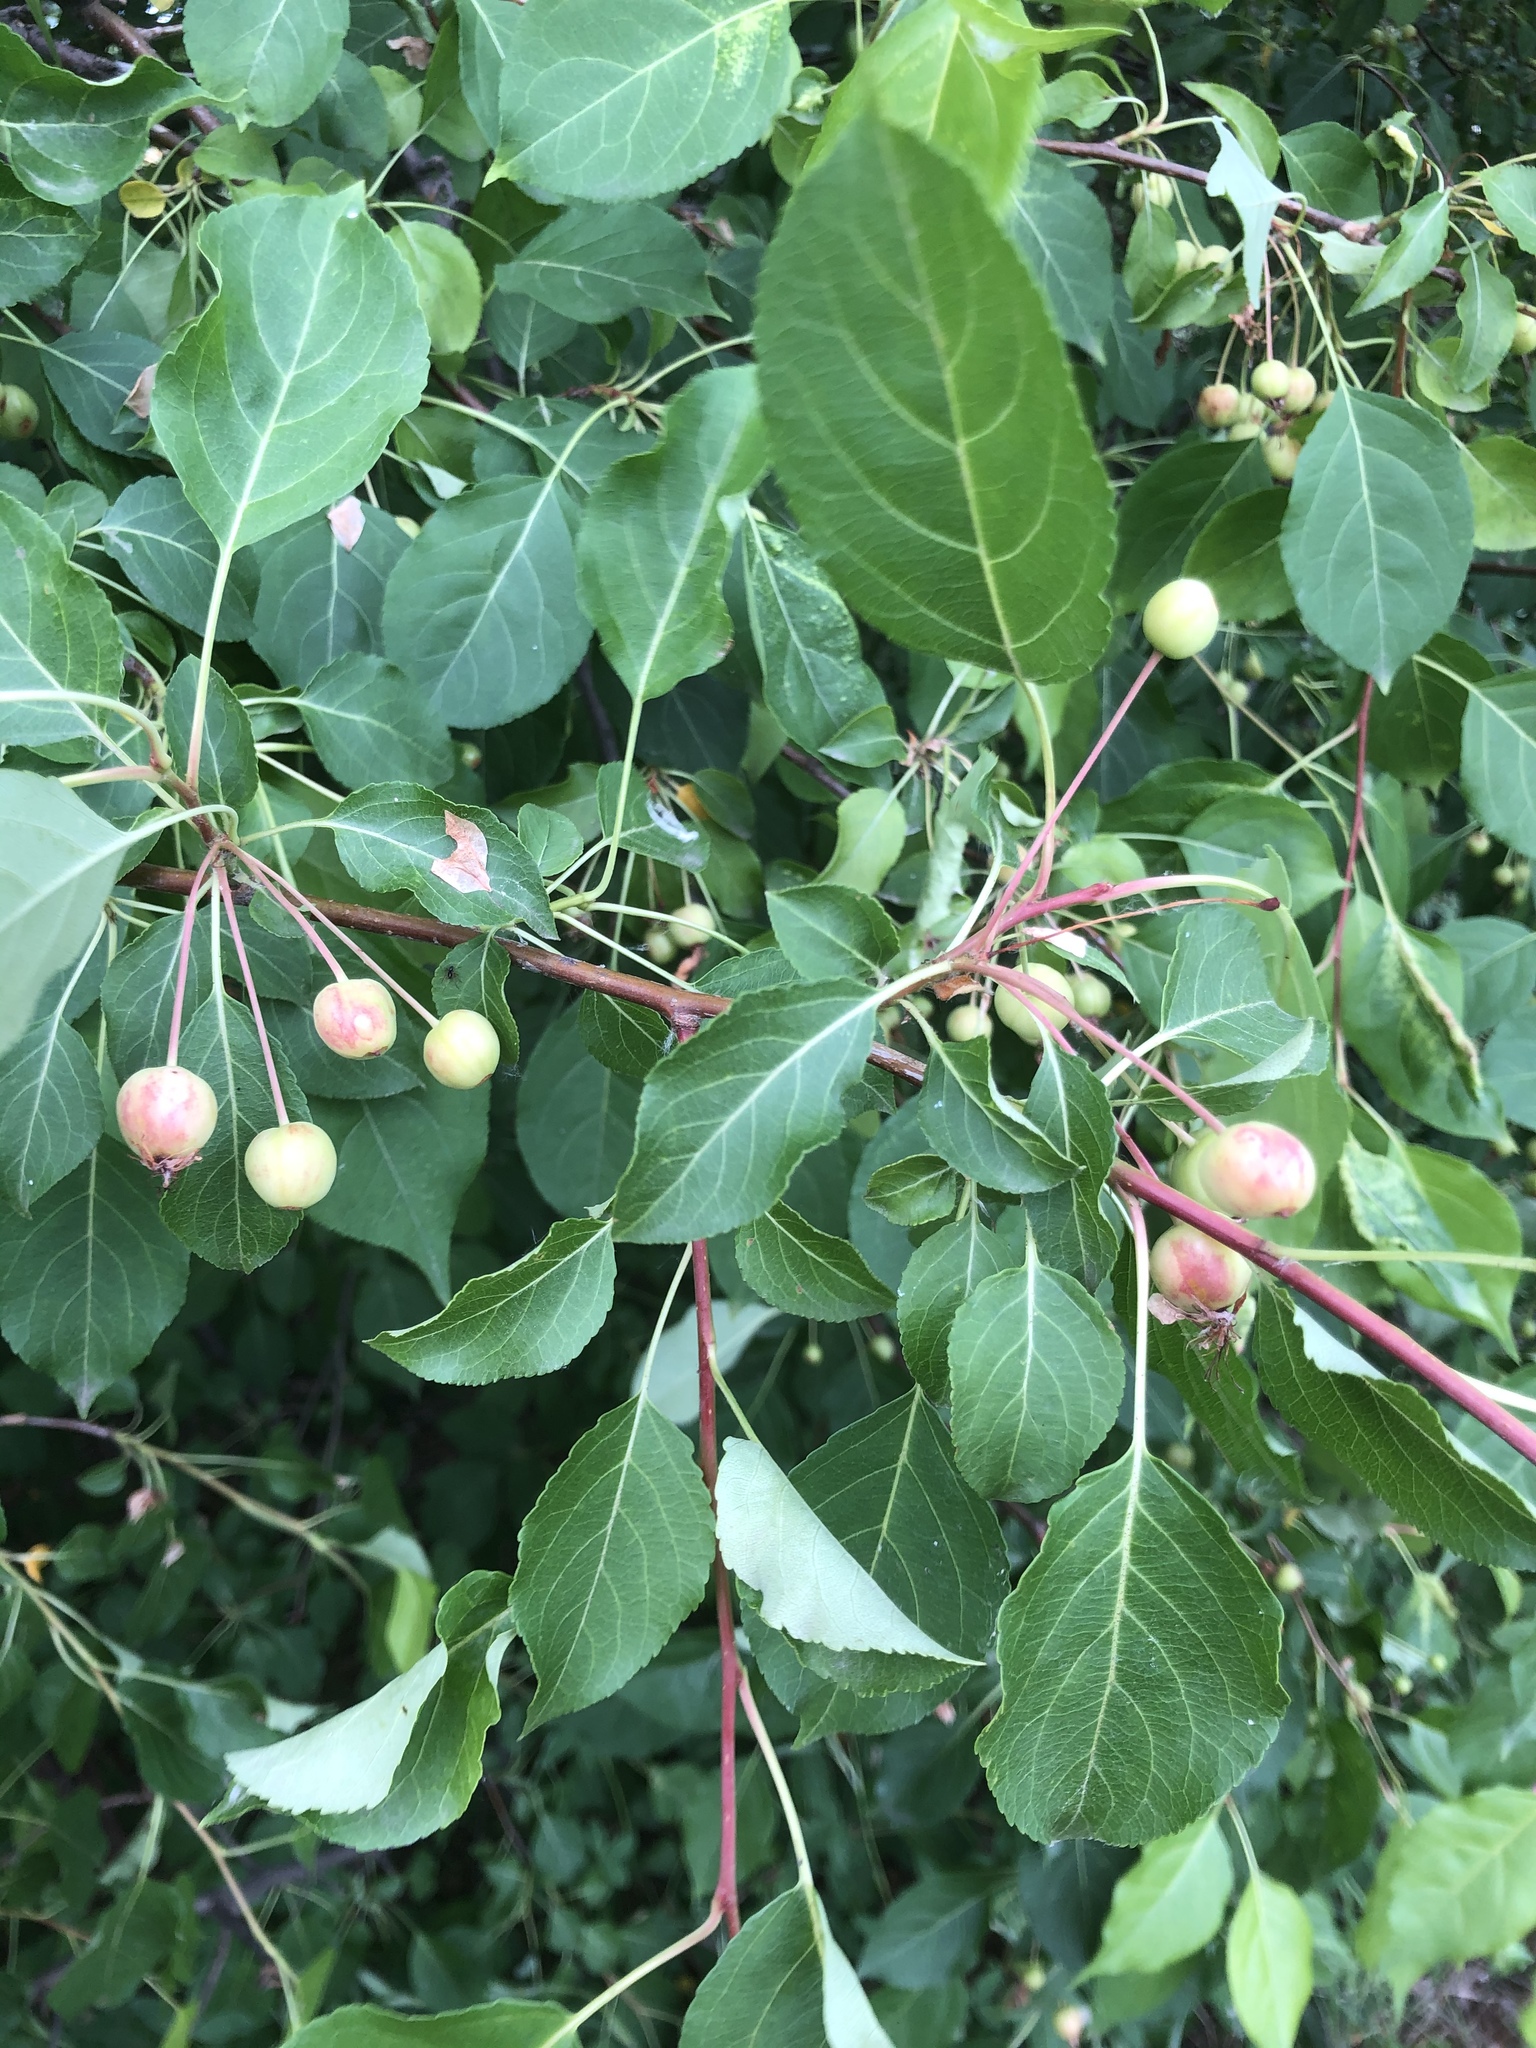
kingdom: Plantae
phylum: Tracheophyta
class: Magnoliopsida
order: Rosales
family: Rosaceae
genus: Malus
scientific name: Malus baccata
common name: Siberian crab
